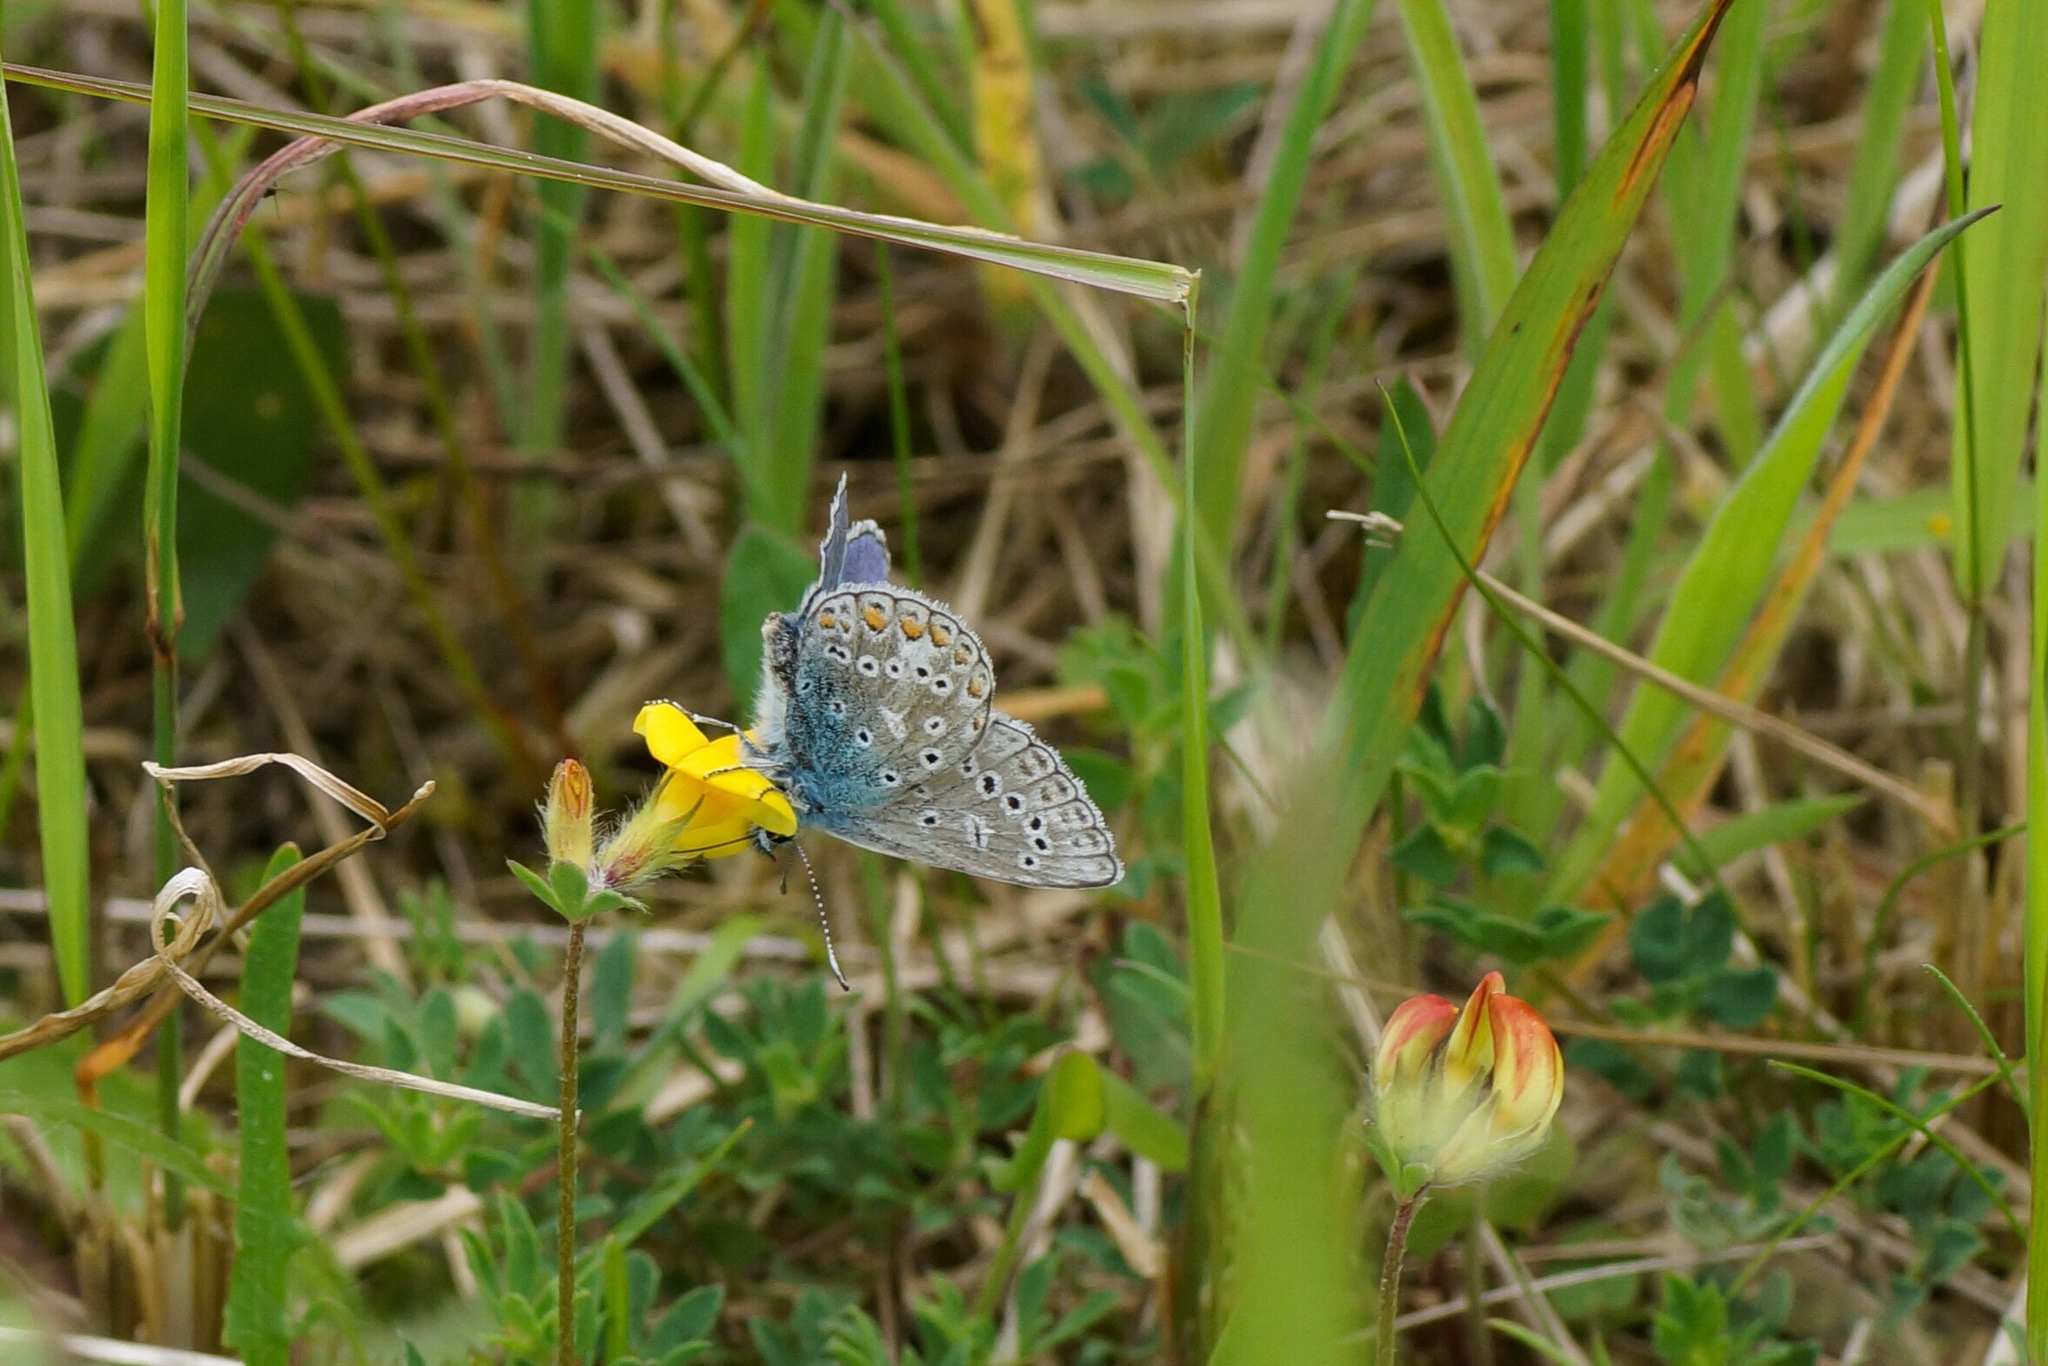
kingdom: Animalia
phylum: Arthropoda
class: Insecta
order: Lepidoptera
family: Lycaenidae
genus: Polyommatus
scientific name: Polyommatus icarus
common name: Common blue
